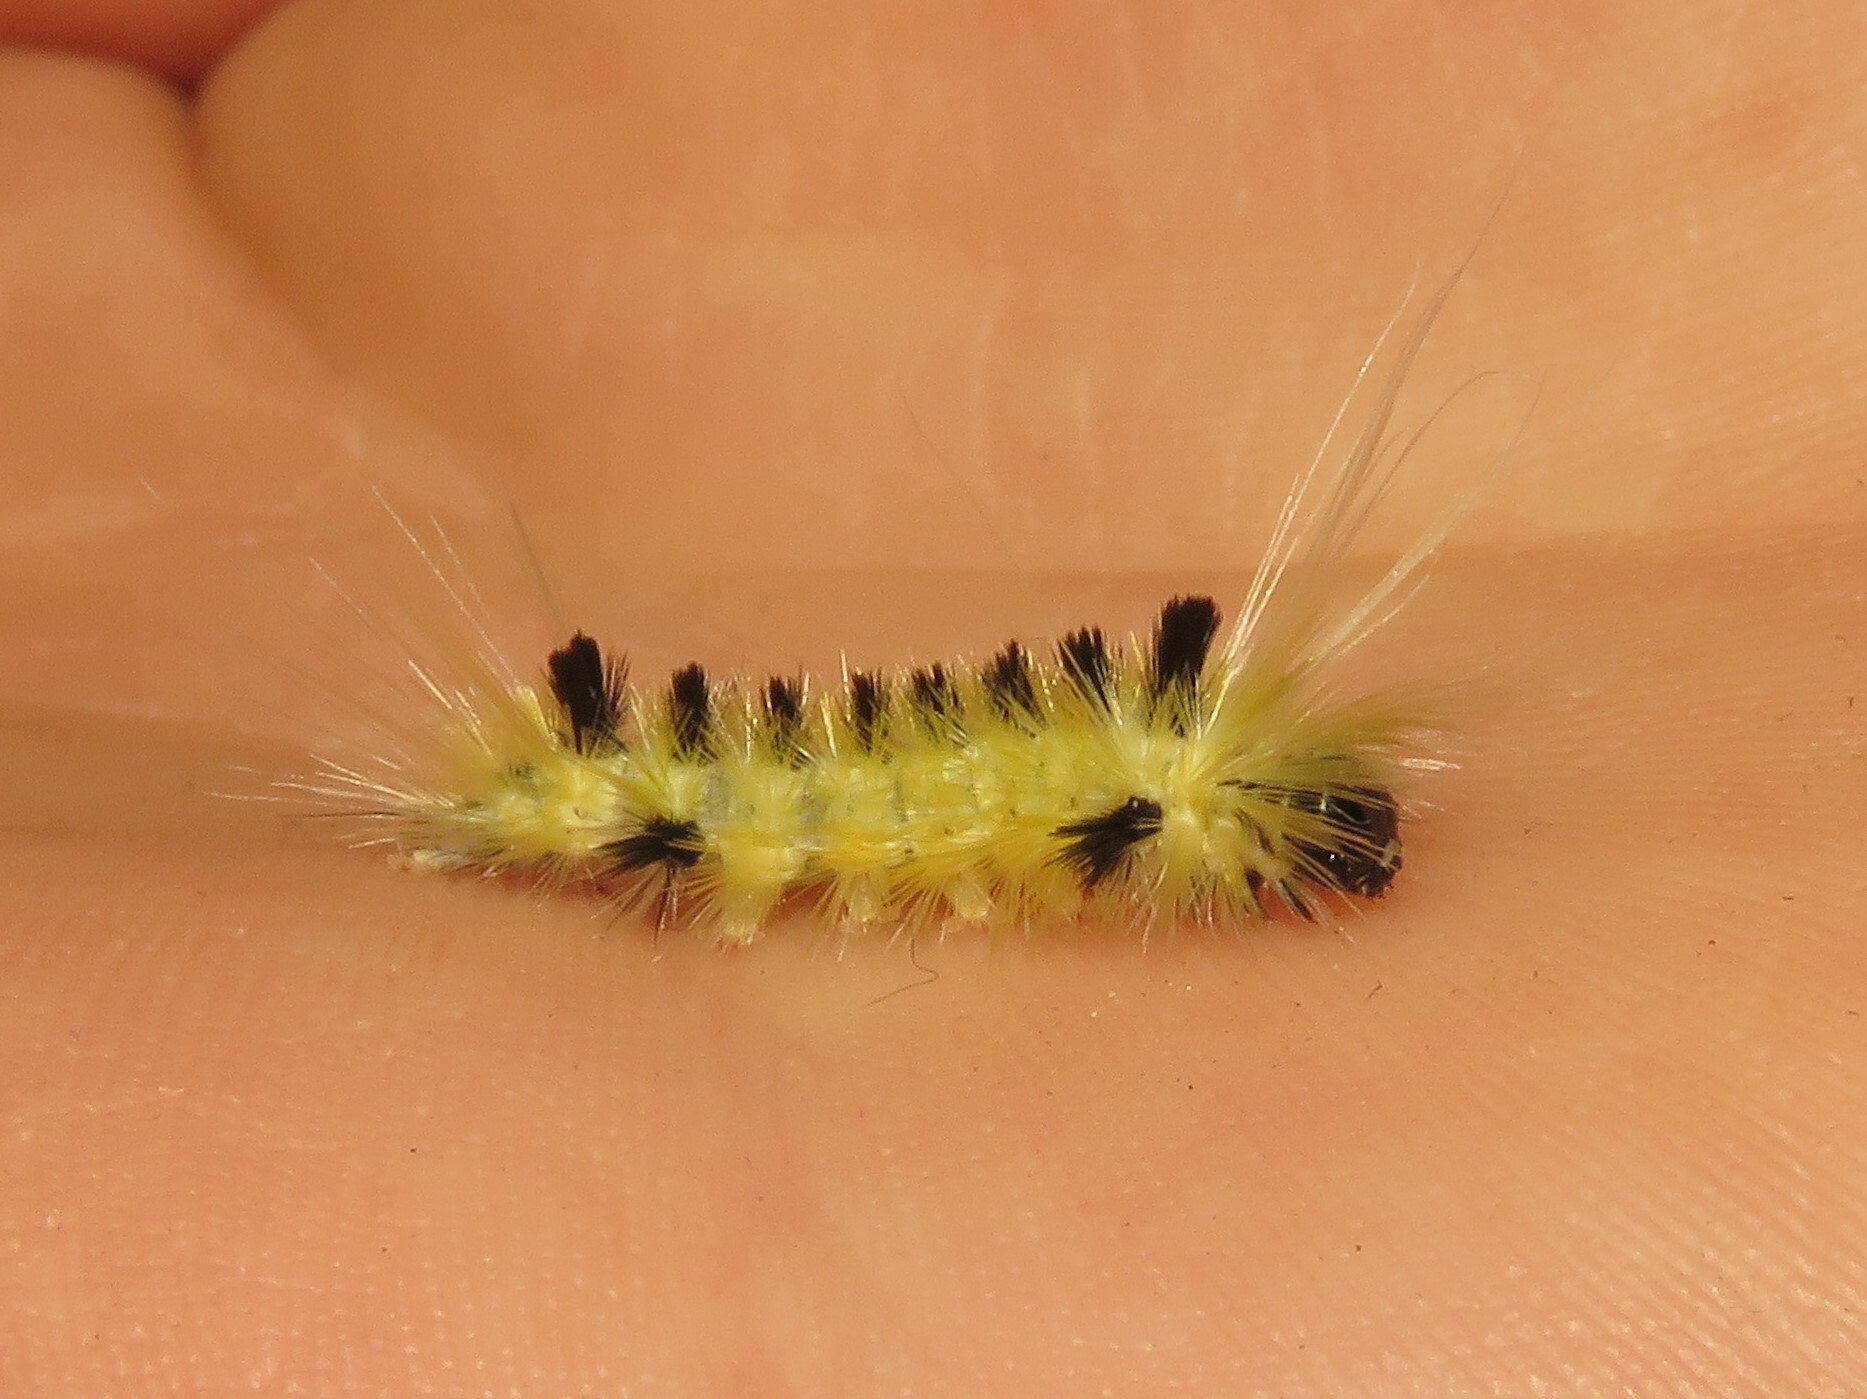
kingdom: Animalia
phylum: Arthropoda
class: Insecta
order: Lepidoptera
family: Erebidae
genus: Lophocampa
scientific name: Lophocampa maculata
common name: Spotted tussock moth
